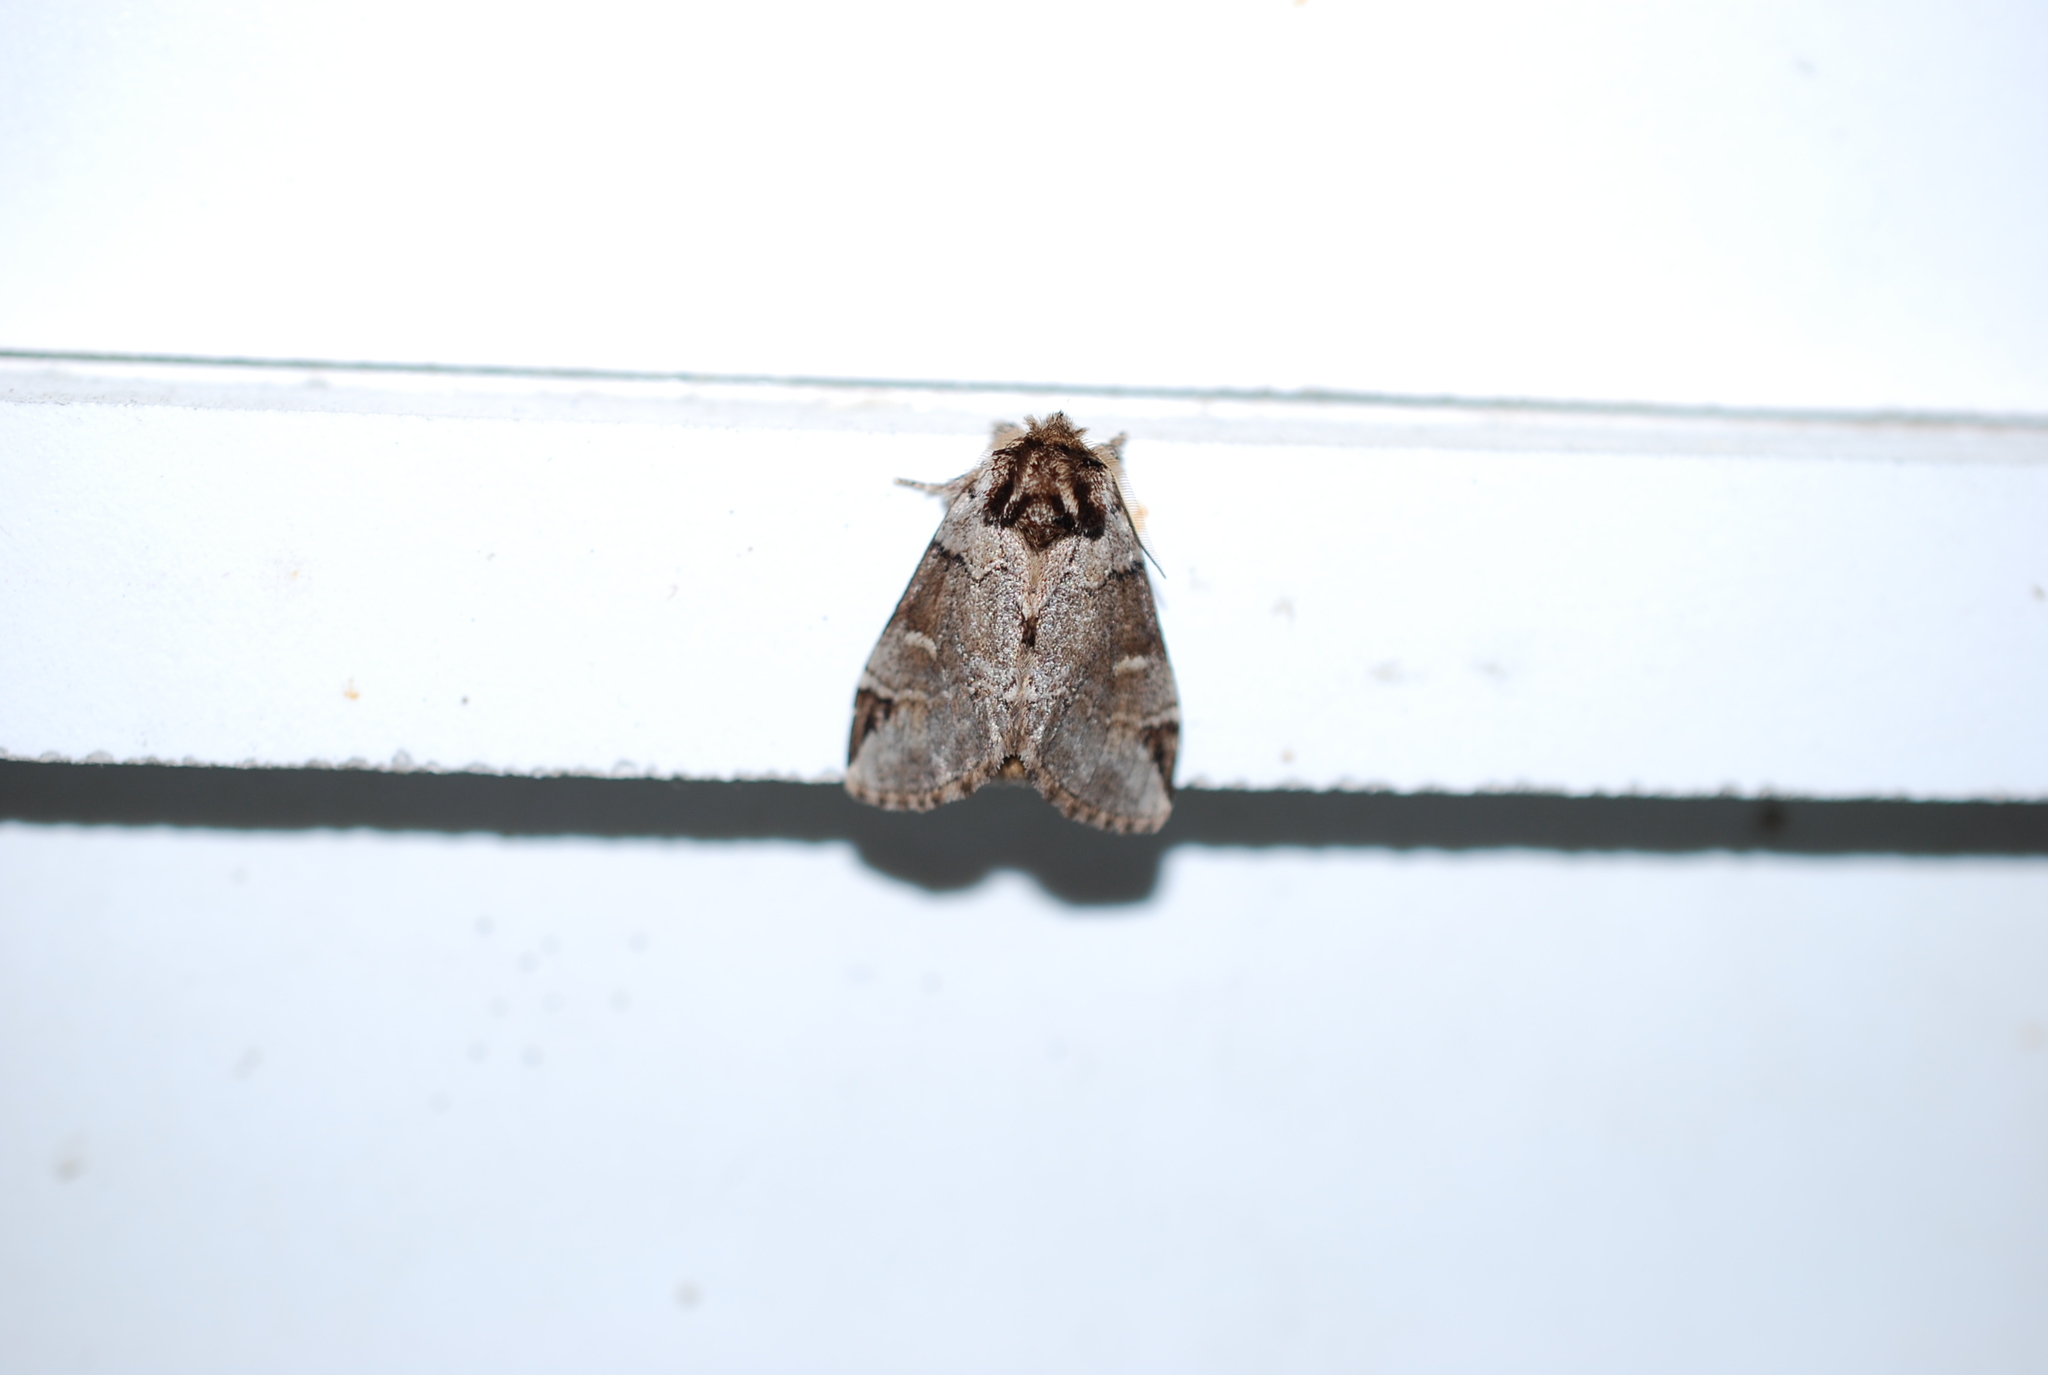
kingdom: Animalia
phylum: Arthropoda
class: Insecta
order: Lepidoptera
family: Notodontidae
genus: Drymonia
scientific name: Drymonia obliterata
